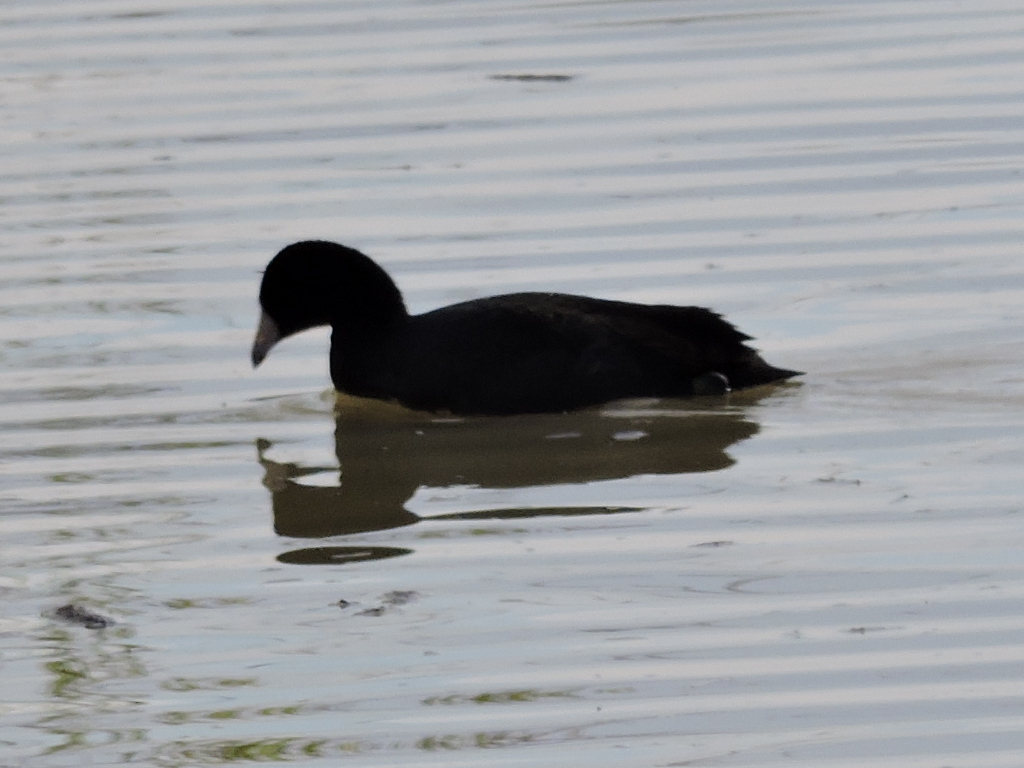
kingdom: Animalia
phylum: Chordata
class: Aves
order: Gruiformes
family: Rallidae
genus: Fulica
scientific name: Fulica americana
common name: American coot
